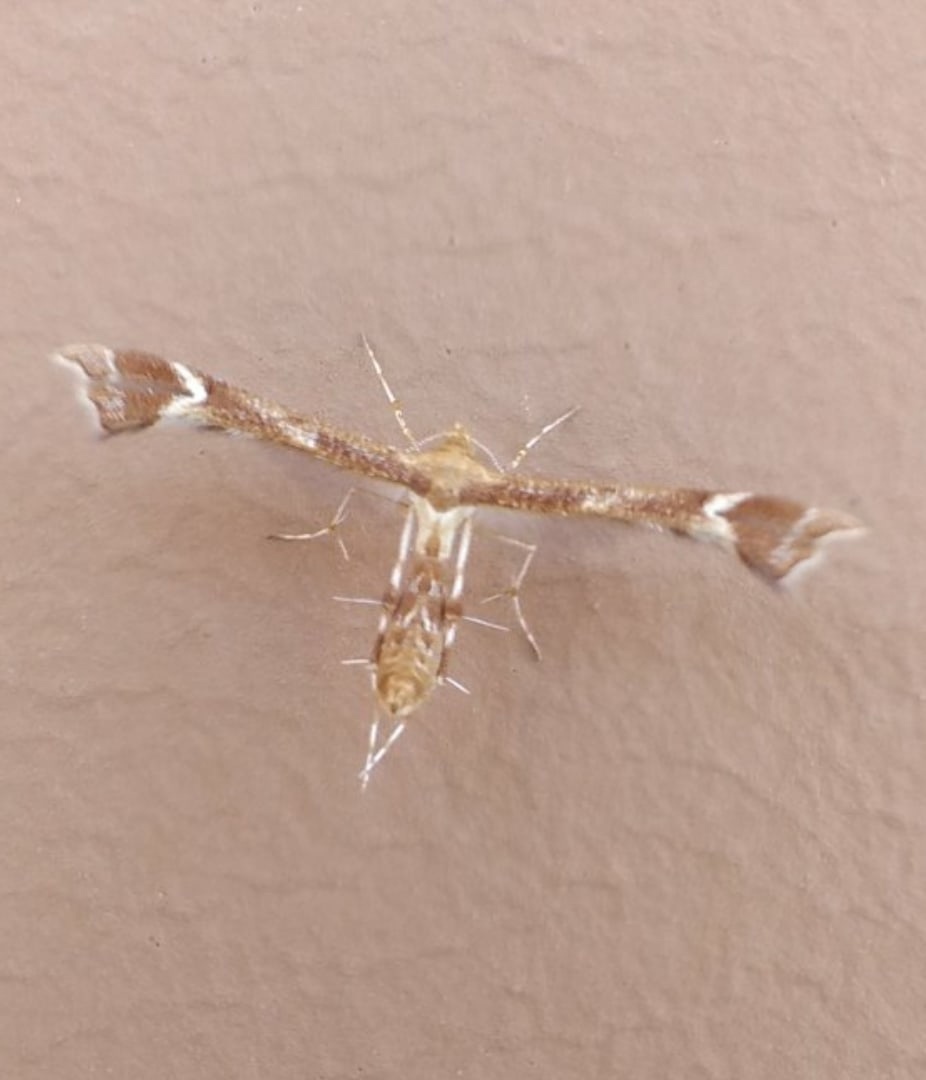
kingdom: Animalia
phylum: Arthropoda
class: Insecta
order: Lepidoptera
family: Pterophoridae
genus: Cnaemidophorus
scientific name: Cnaemidophorus rhododactyla
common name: Rose plume
